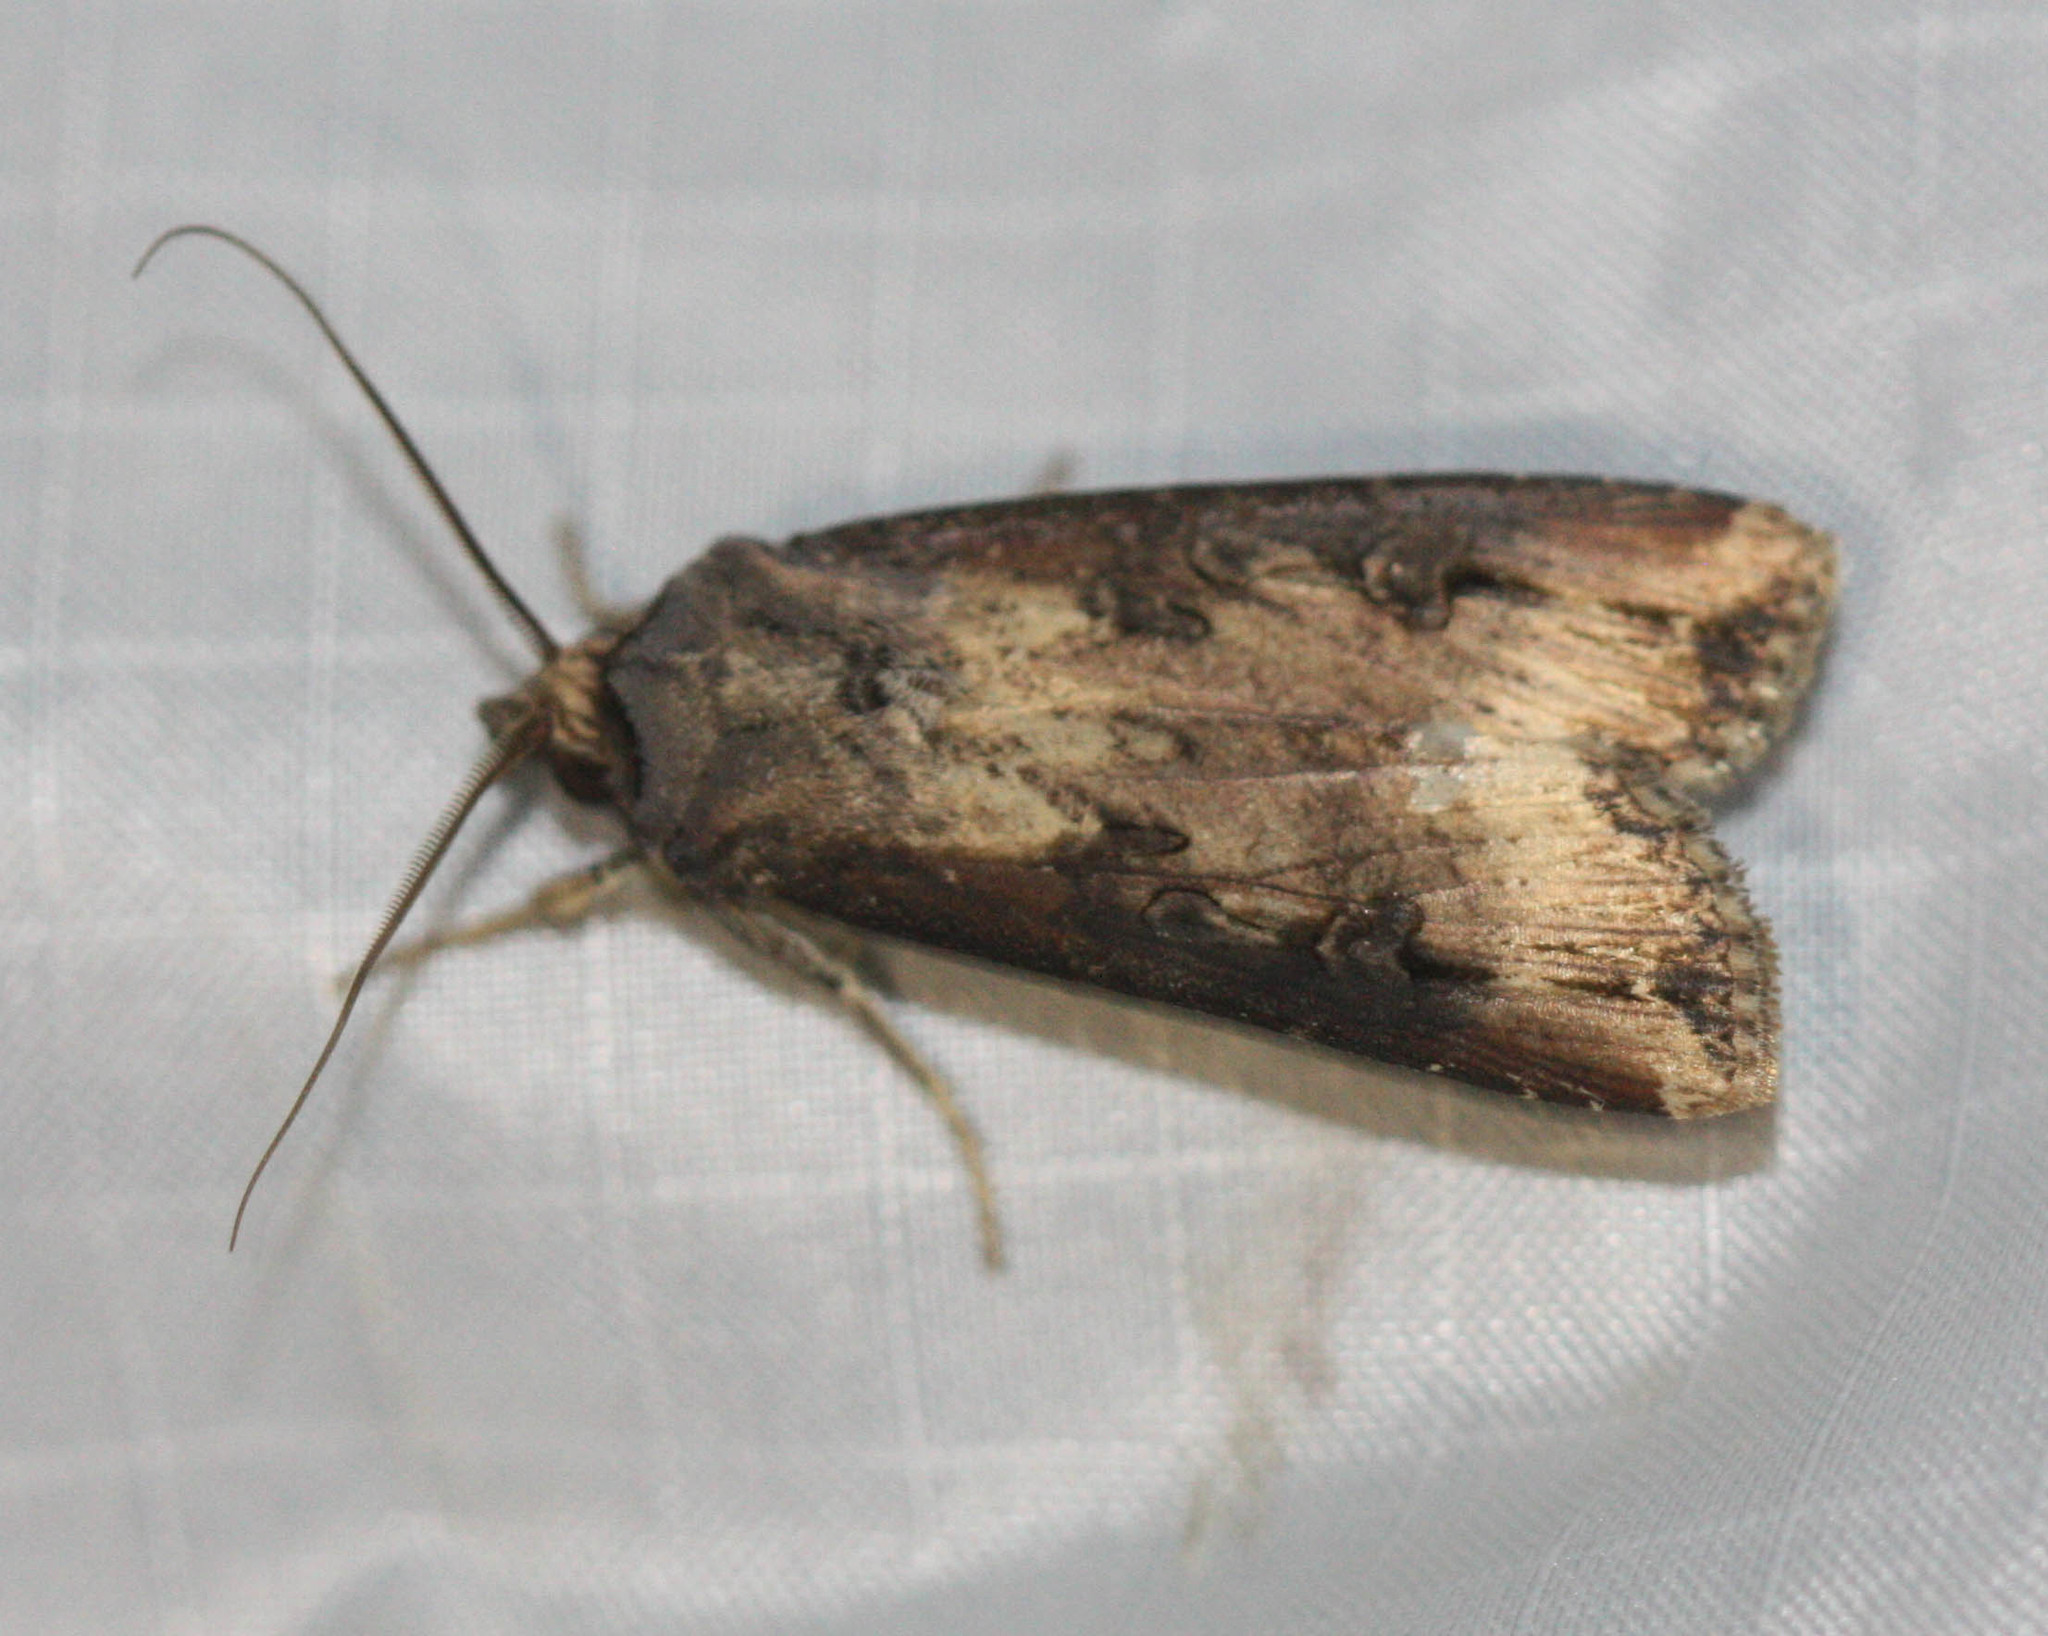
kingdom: Animalia
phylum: Arthropoda
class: Insecta
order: Lepidoptera
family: Noctuidae
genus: Agrotis
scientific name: Agrotis ipsilon
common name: Dark sword-grass
